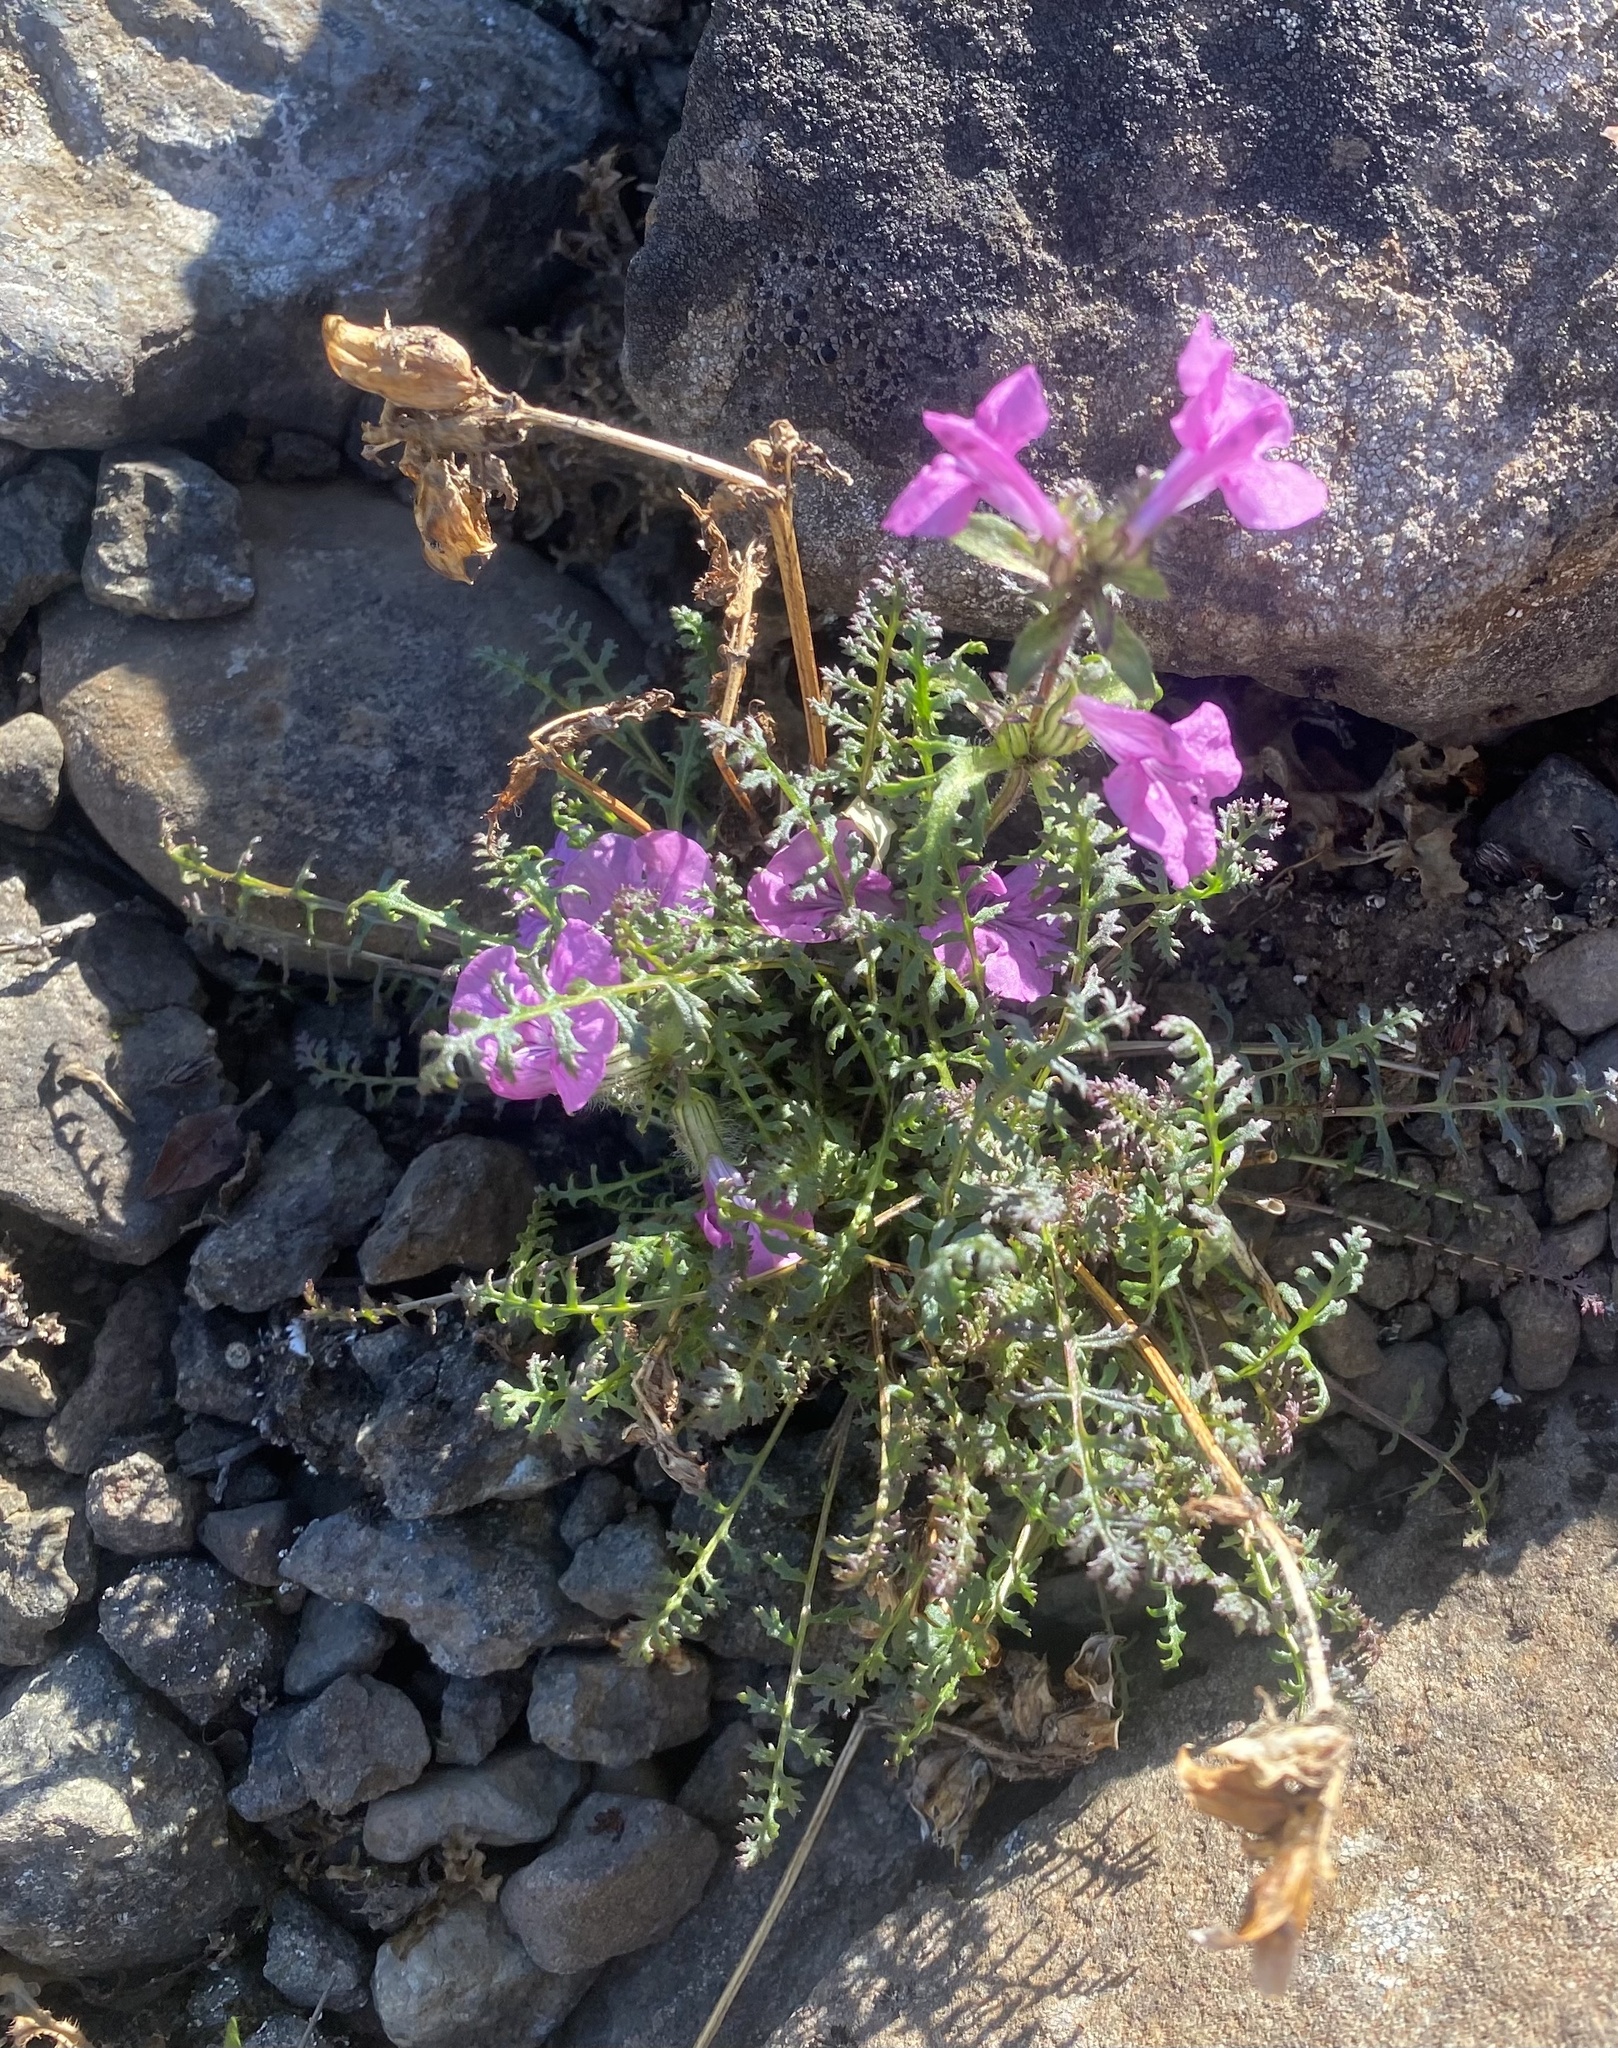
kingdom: Plantae
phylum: Tracheophyta
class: Magnoliopsida
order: Lamiales
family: Orobanchaceae
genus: Pedicularis
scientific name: Pedicularis verticillata
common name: Whorled lousewort
